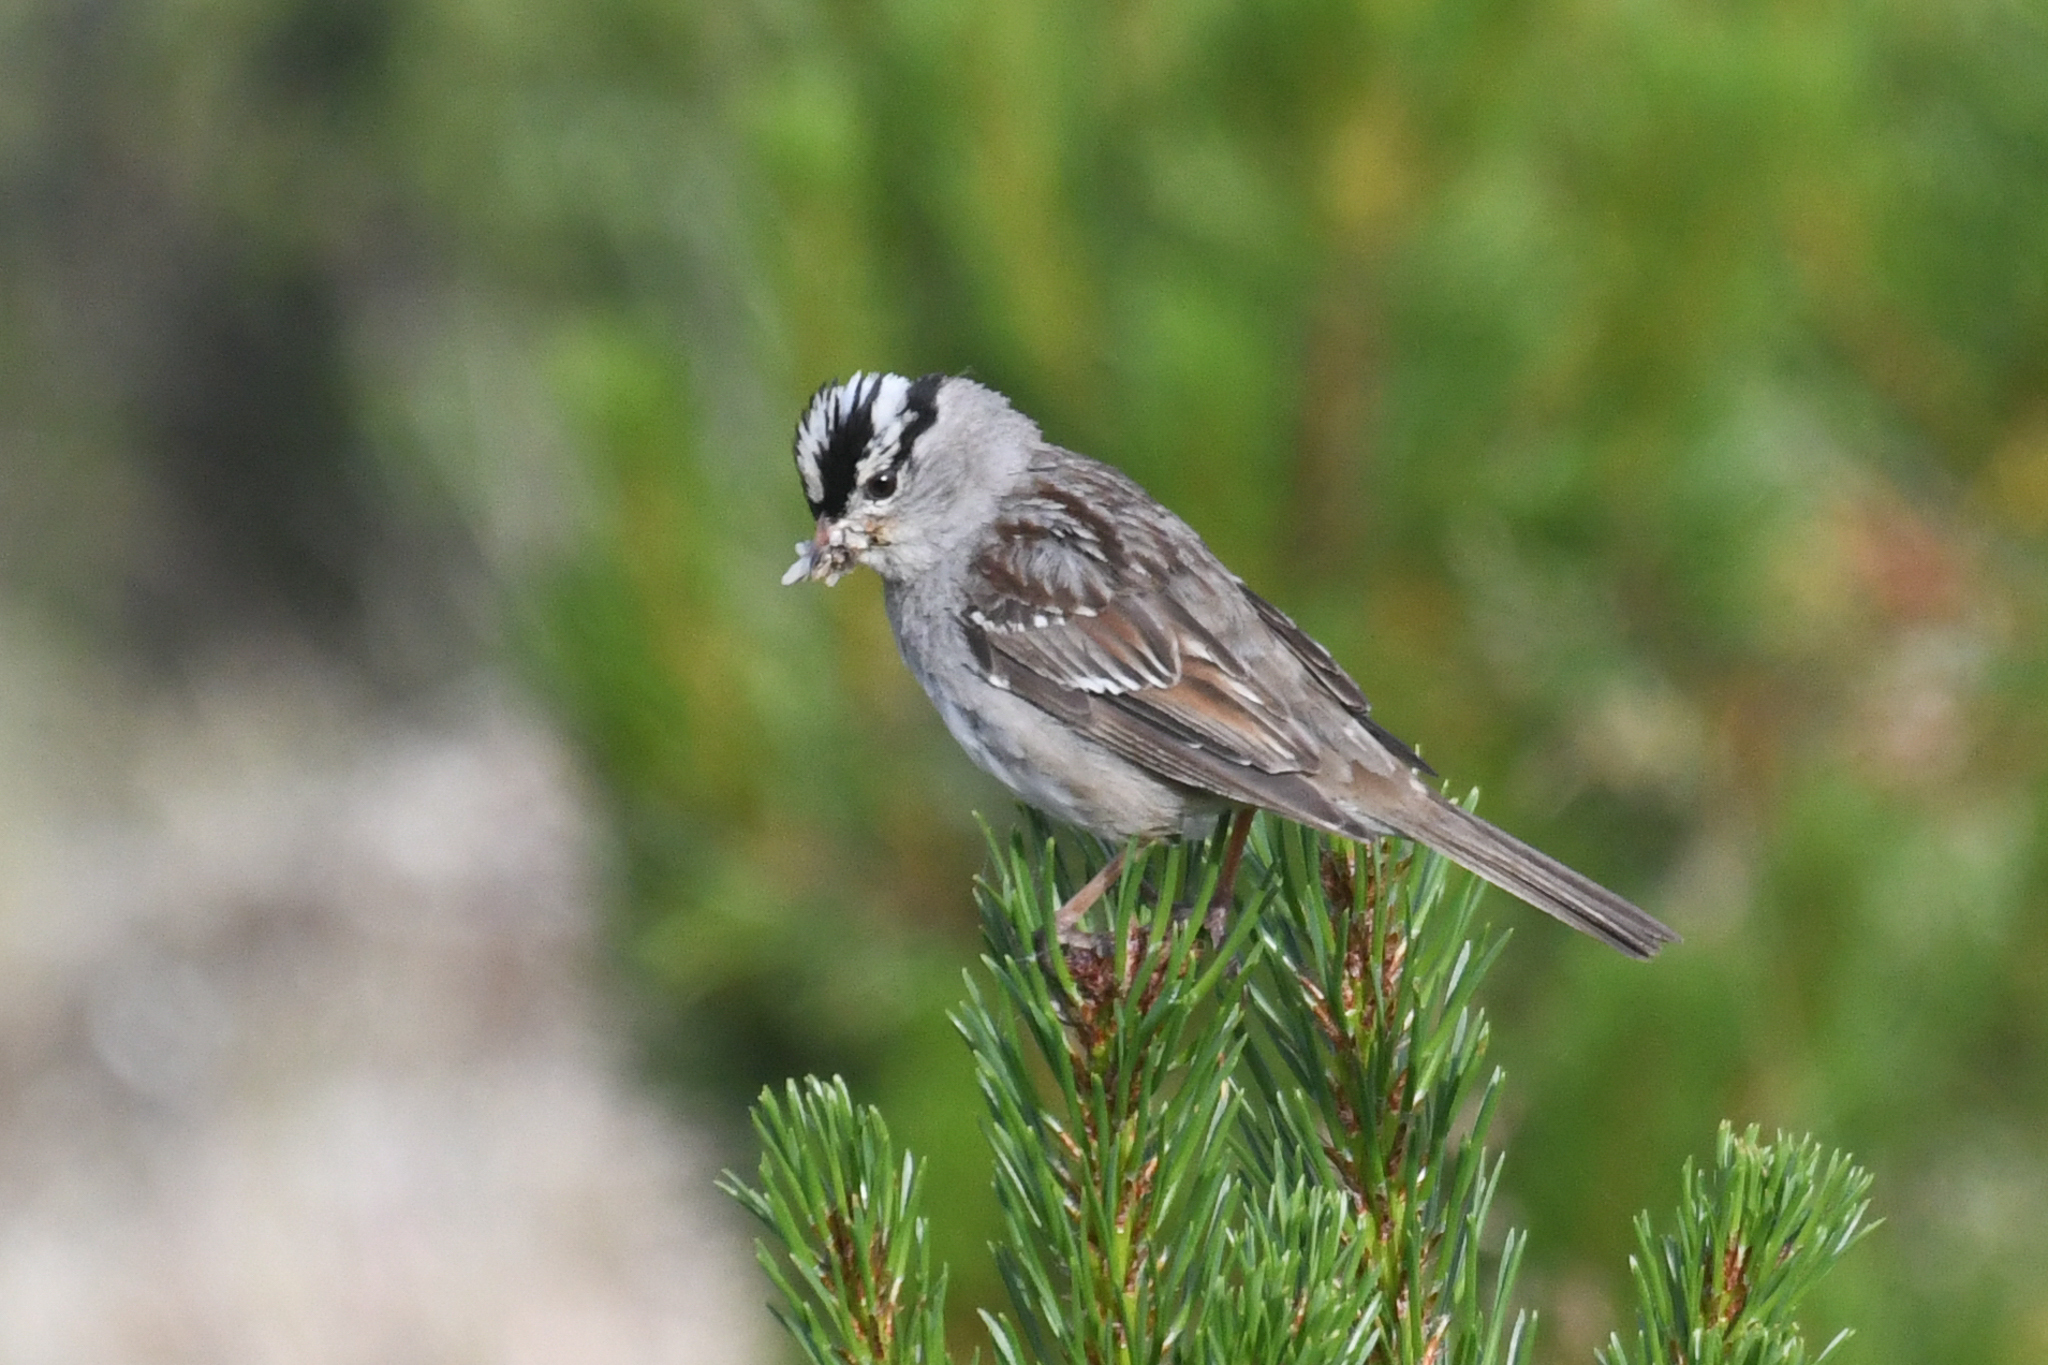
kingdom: Animalia
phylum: Chordata
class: Aves
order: Passeriformes
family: Passerellidae
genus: Zonotrichia
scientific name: Zonotrichia leucophrys
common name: White-crowned sparrow
